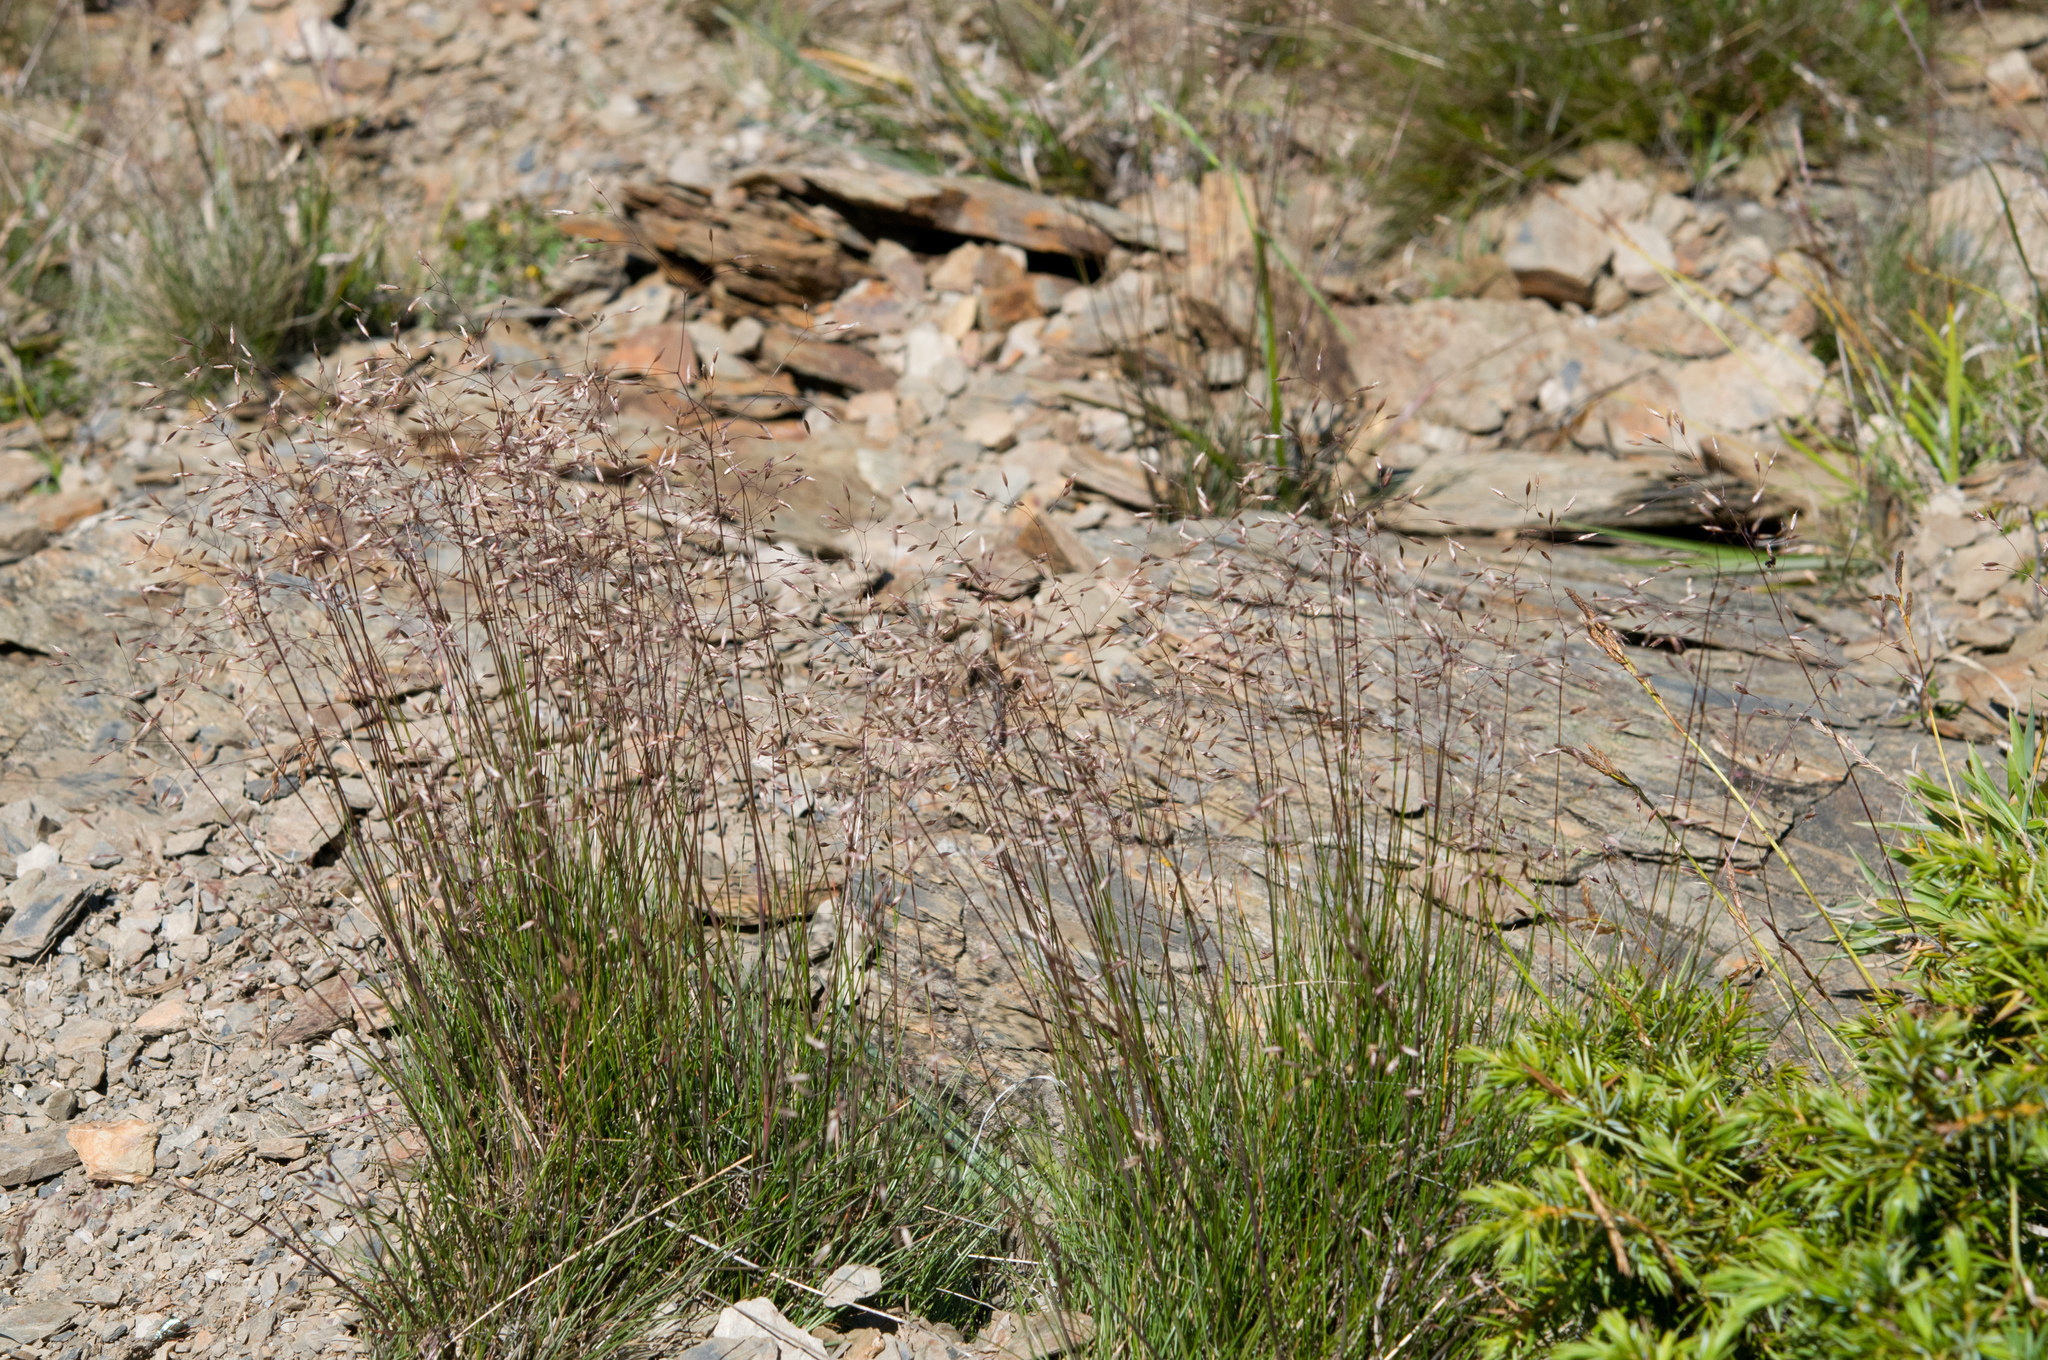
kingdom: Plantae
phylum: Tracheophyta
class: Liliopsida
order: Poales
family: Poaceae
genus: Avenella
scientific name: Avenella flexuosa
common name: Wavy hairgrass
